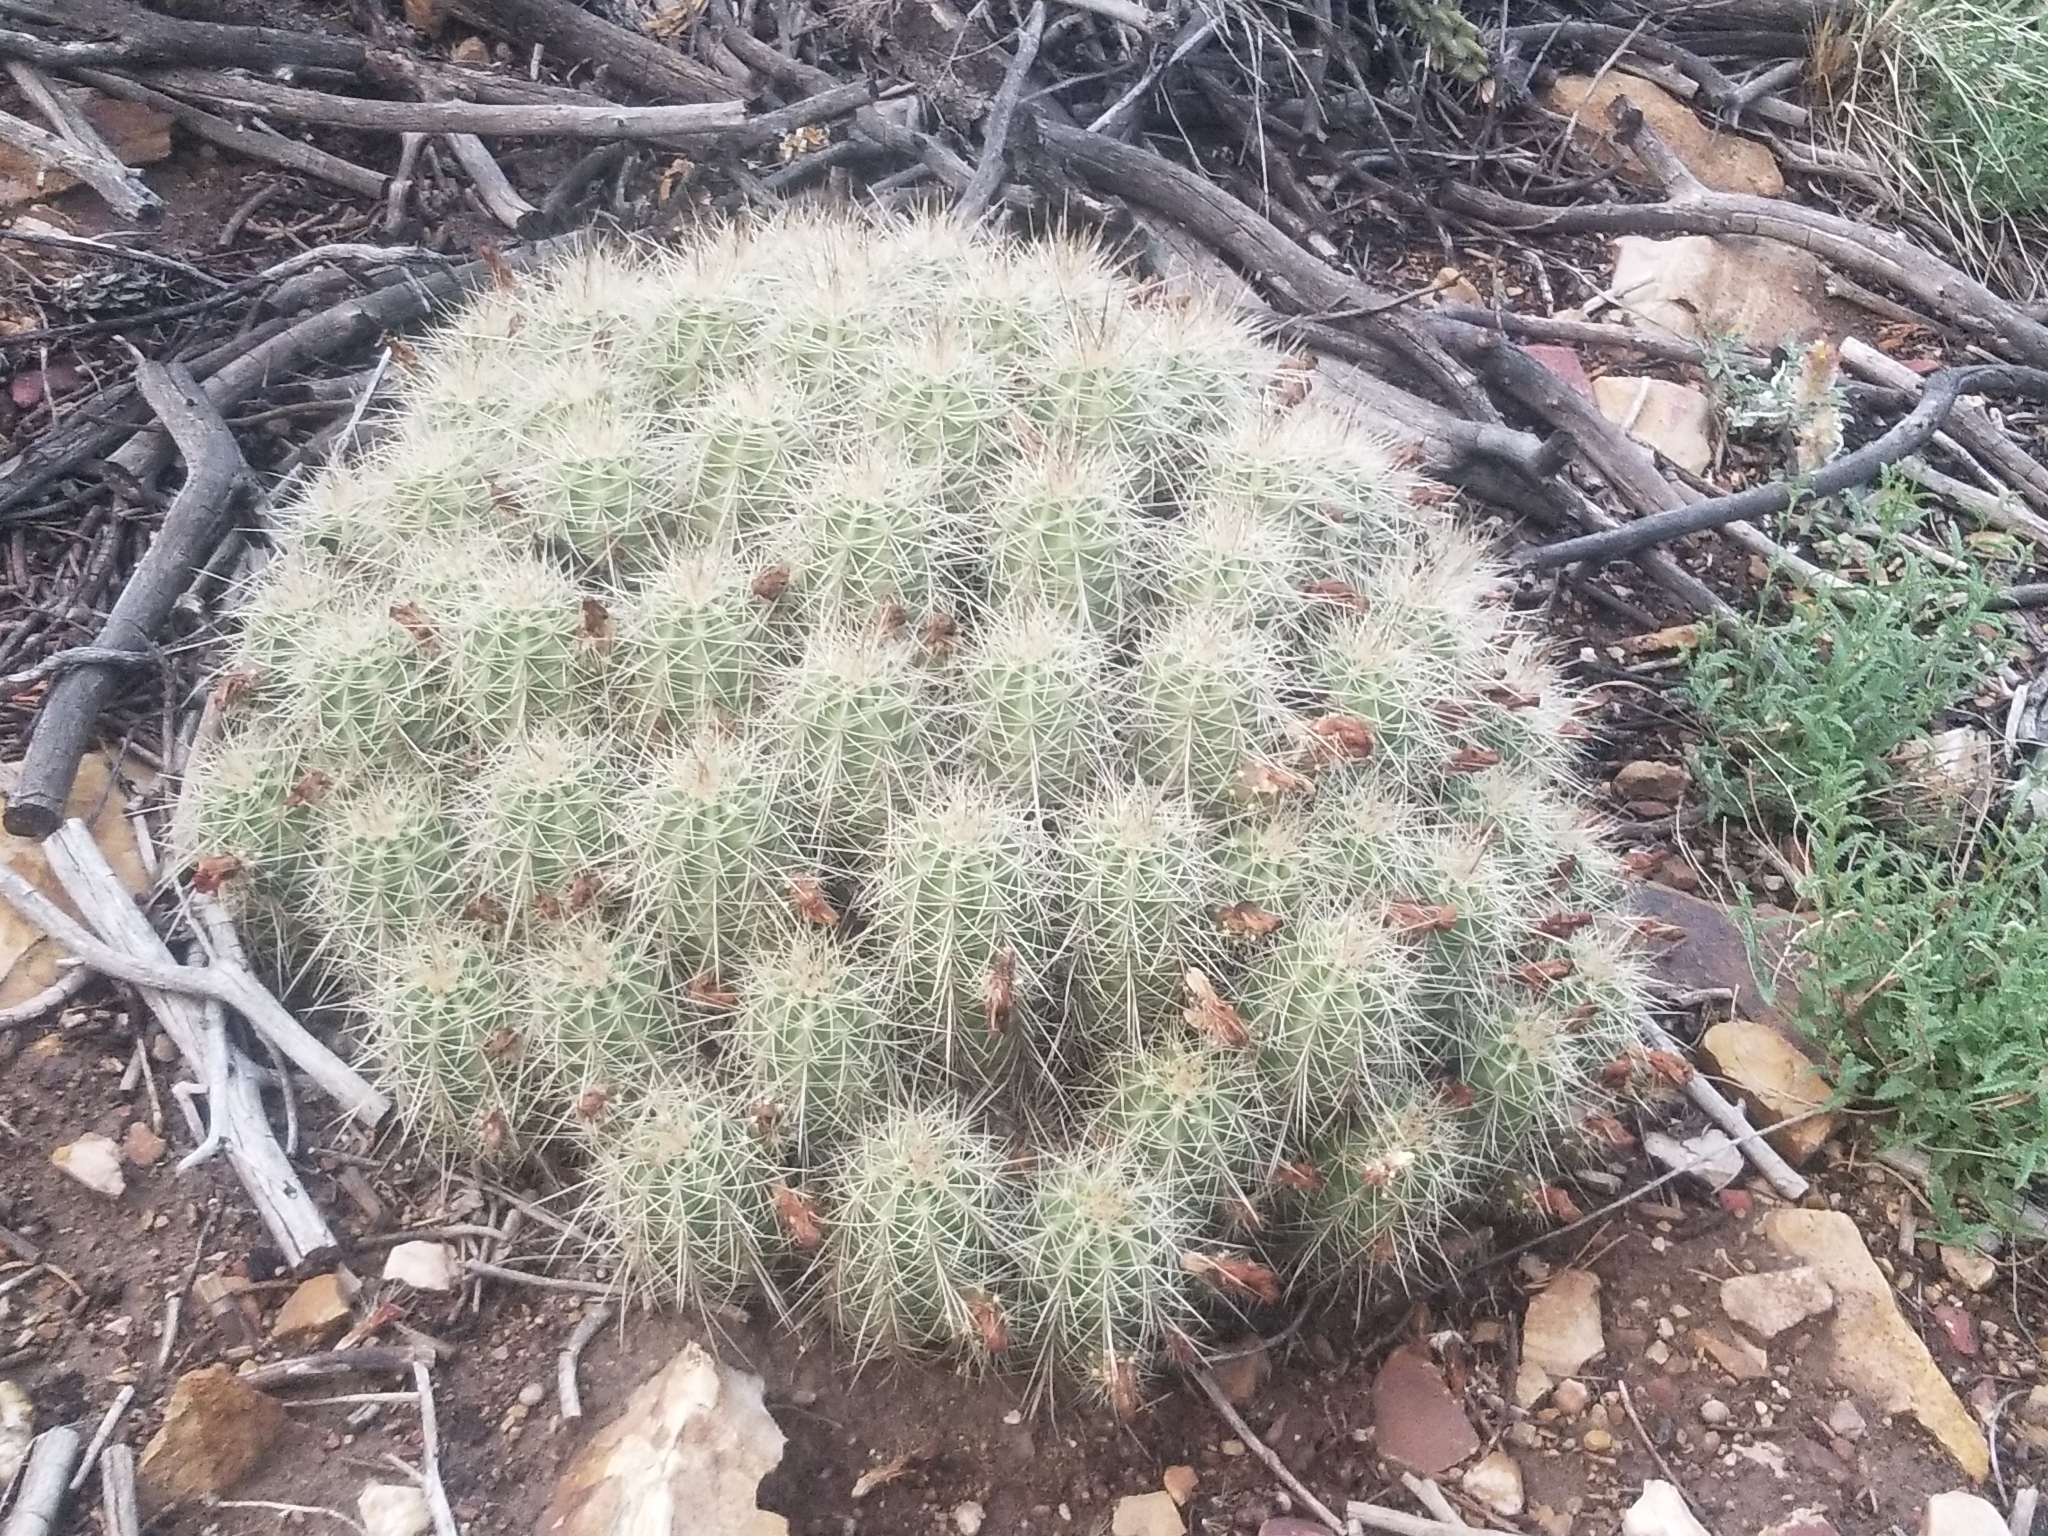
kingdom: Plantae
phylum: Tracheophyta
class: Magnoliopsida
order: Caryophyllales
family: Cactaceae
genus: Echinocereus
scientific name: Echinocereus coccineus
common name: Scarlet hedgehog cactus
